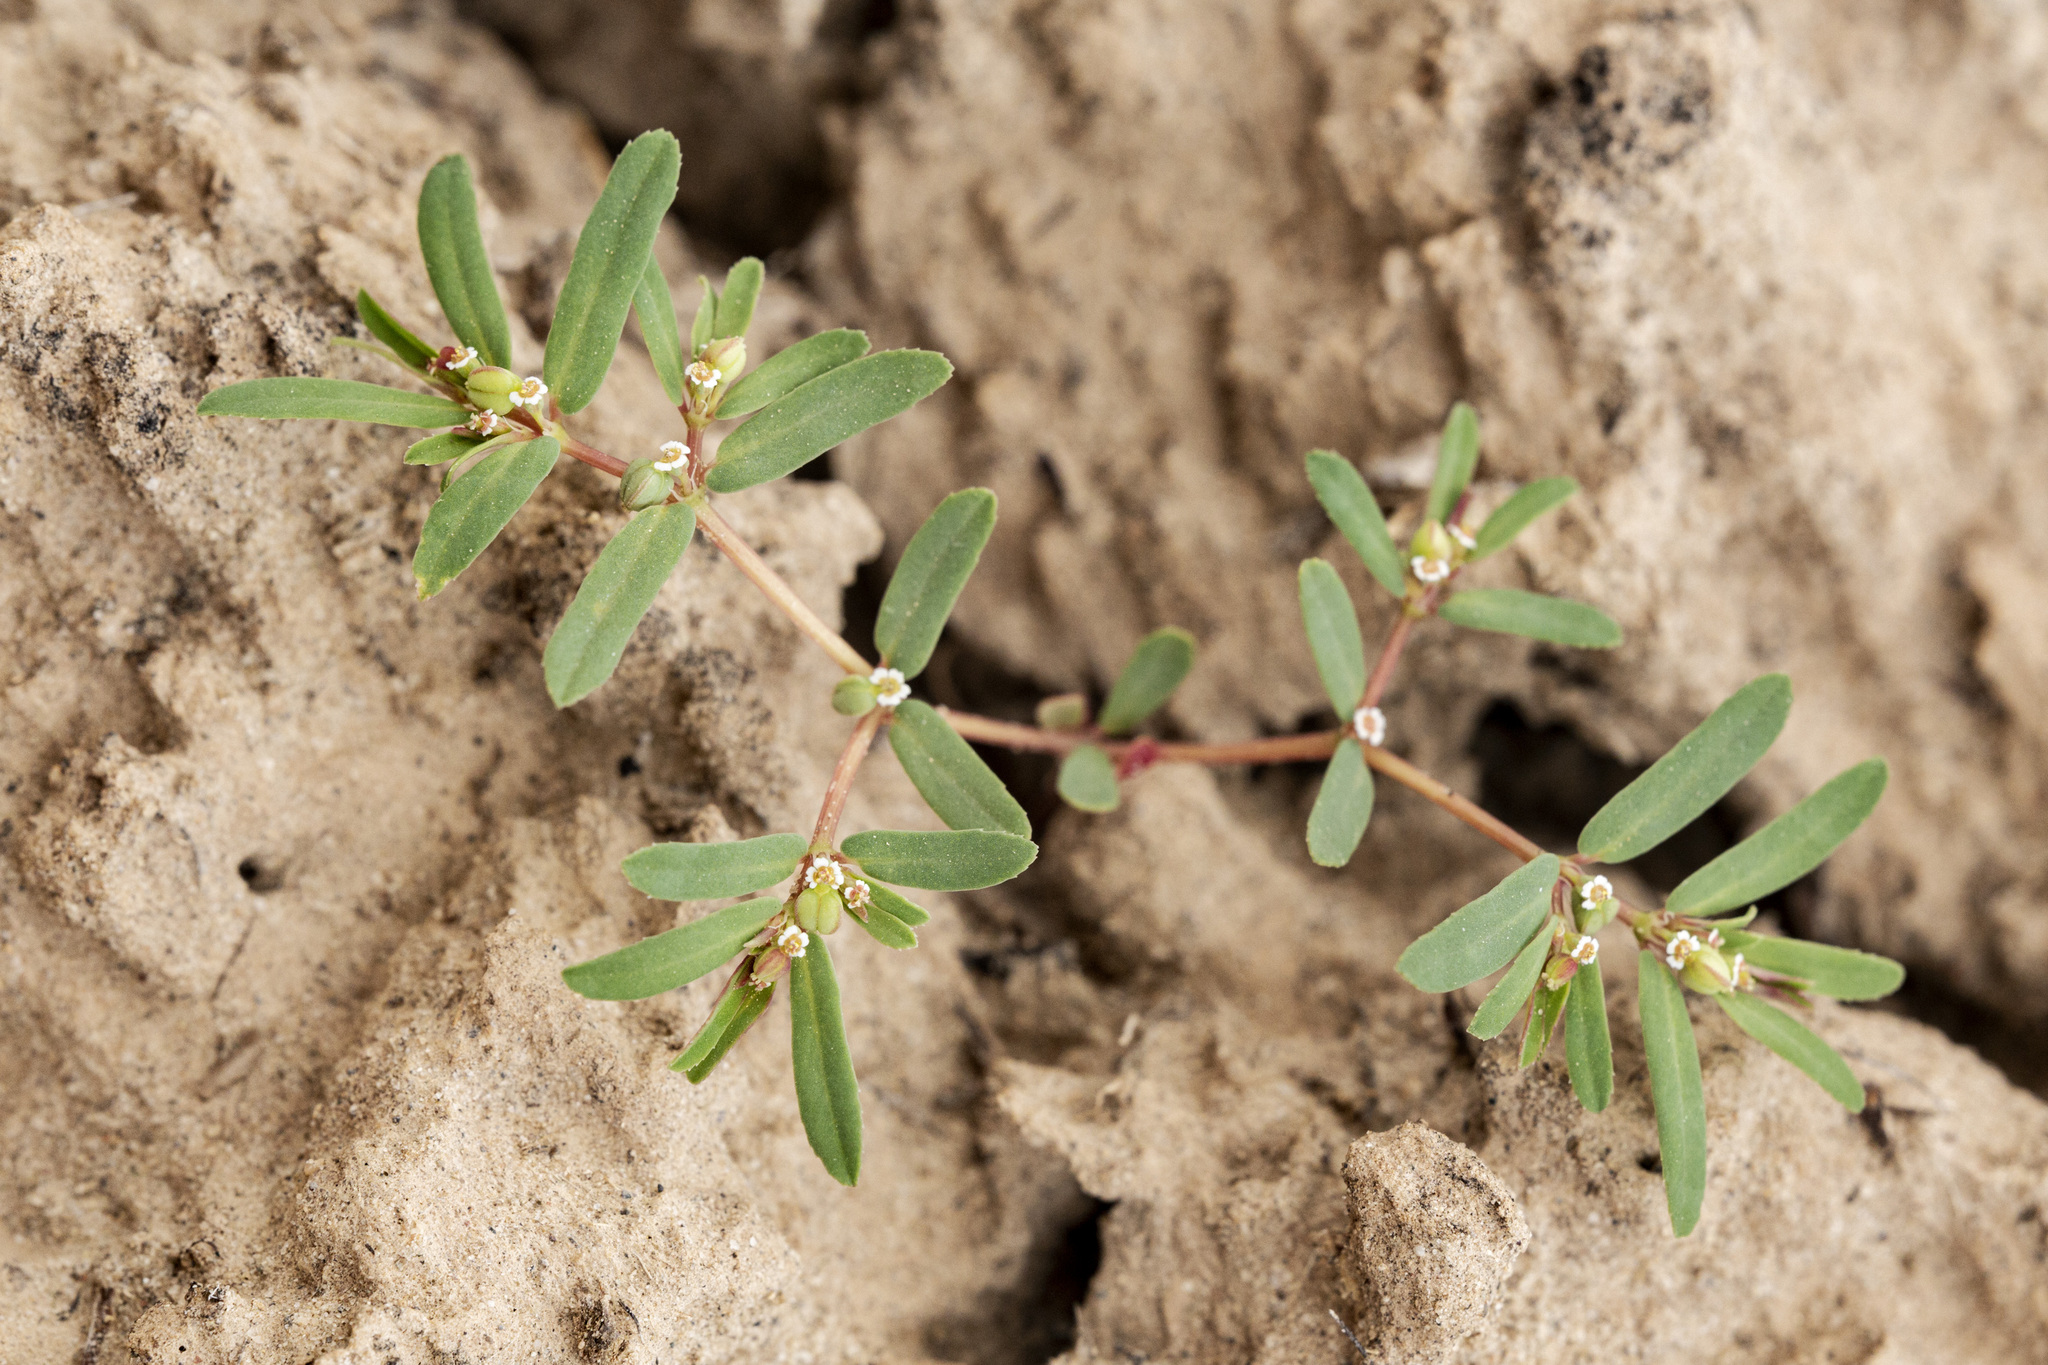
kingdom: Plantae
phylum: Tracheophyta
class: Magnoliopsida
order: Malpighiales
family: Euphorbiaceae
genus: Euphorbia
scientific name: Euphorbia serpillifolia
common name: Thyme-leaf spurge
